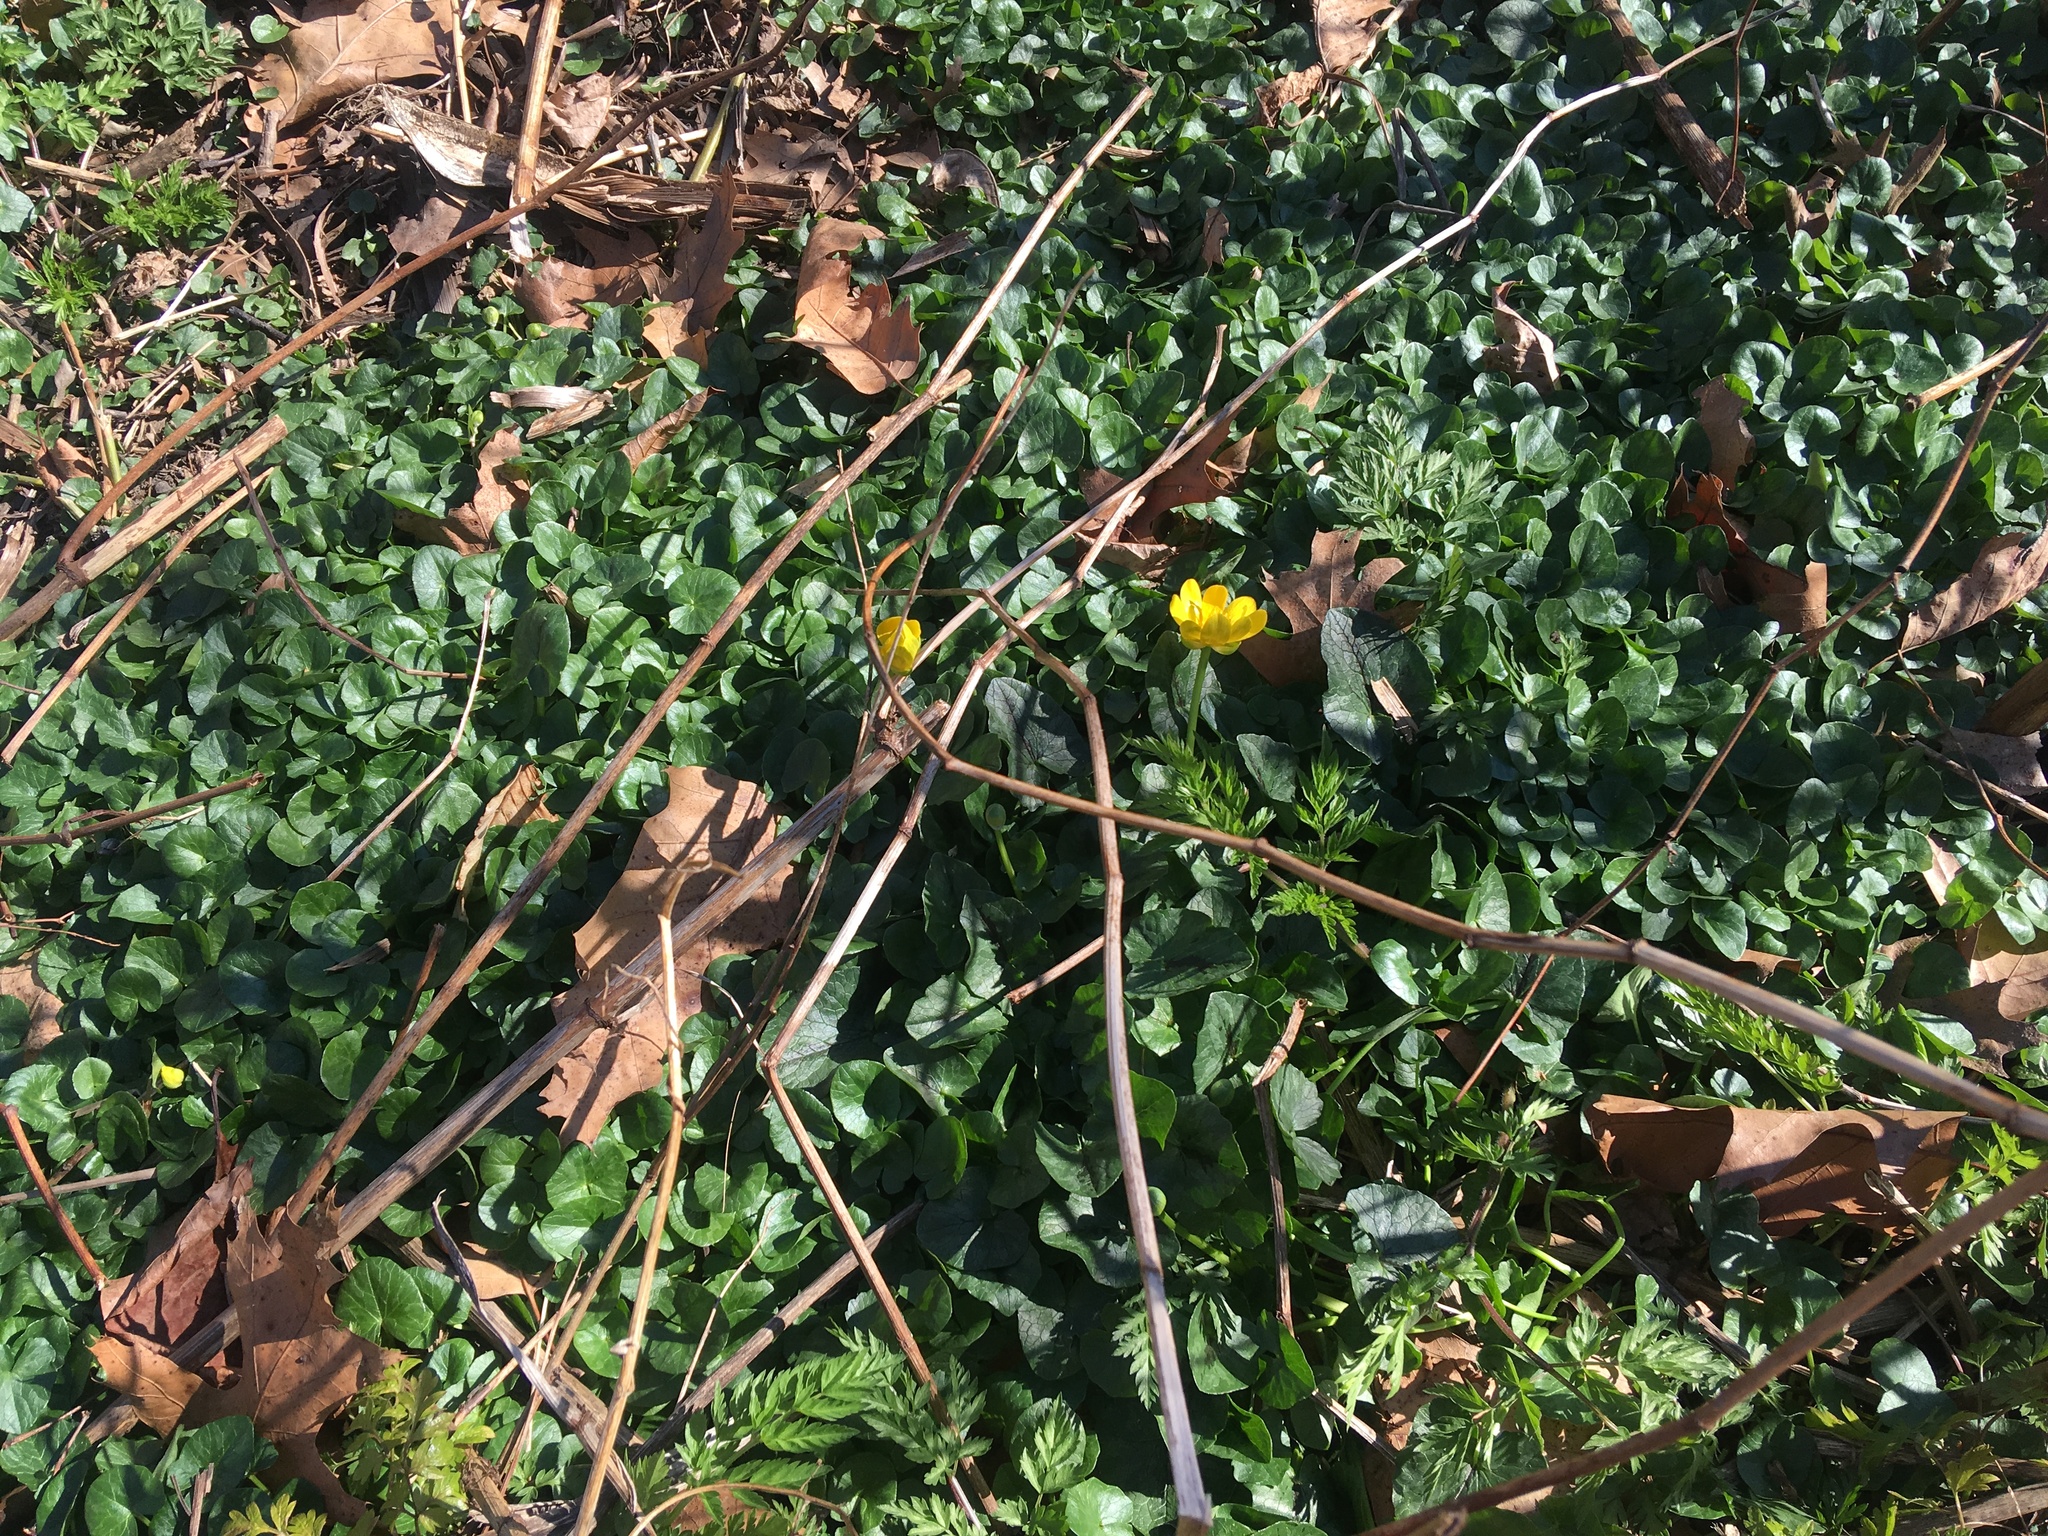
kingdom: Plantae
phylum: Tracheophyta
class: Magnoliopsida
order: Ranunculales
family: Ranunculaceae
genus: Ficaria
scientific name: Ficaria verna
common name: Lesser celandine
